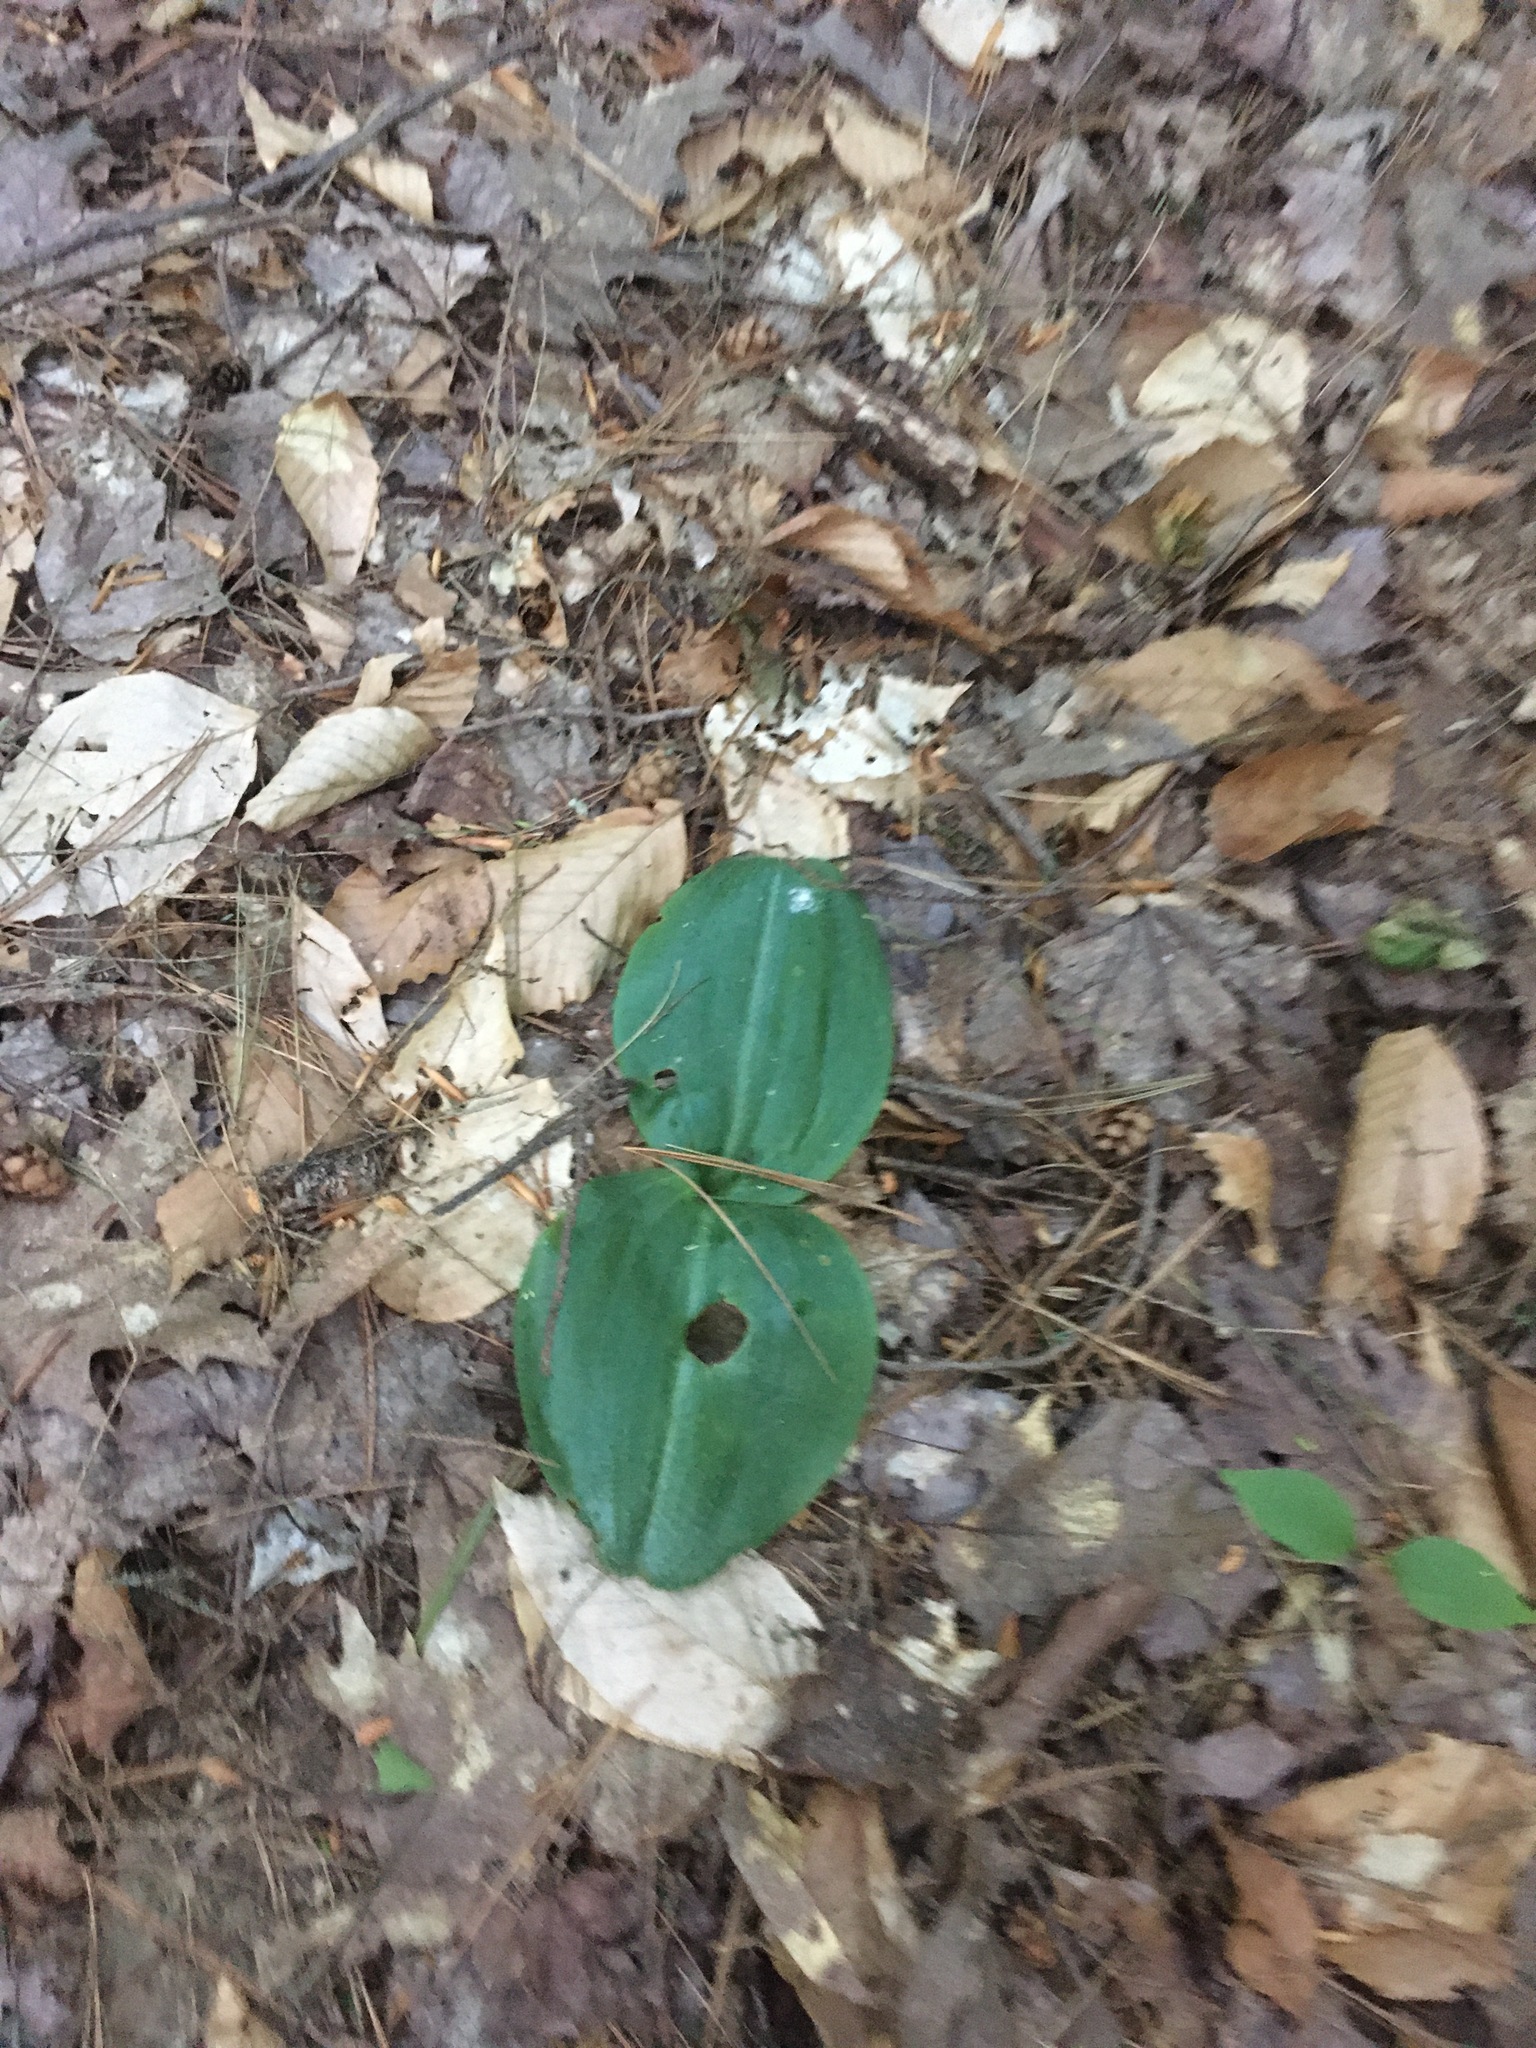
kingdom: Plantae
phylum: Tracheophyta
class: Liliopsida
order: Asparagales
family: Orchidaceae
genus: Platanthera
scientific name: Platanthera orbiculata
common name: Large round-leaved orchid
